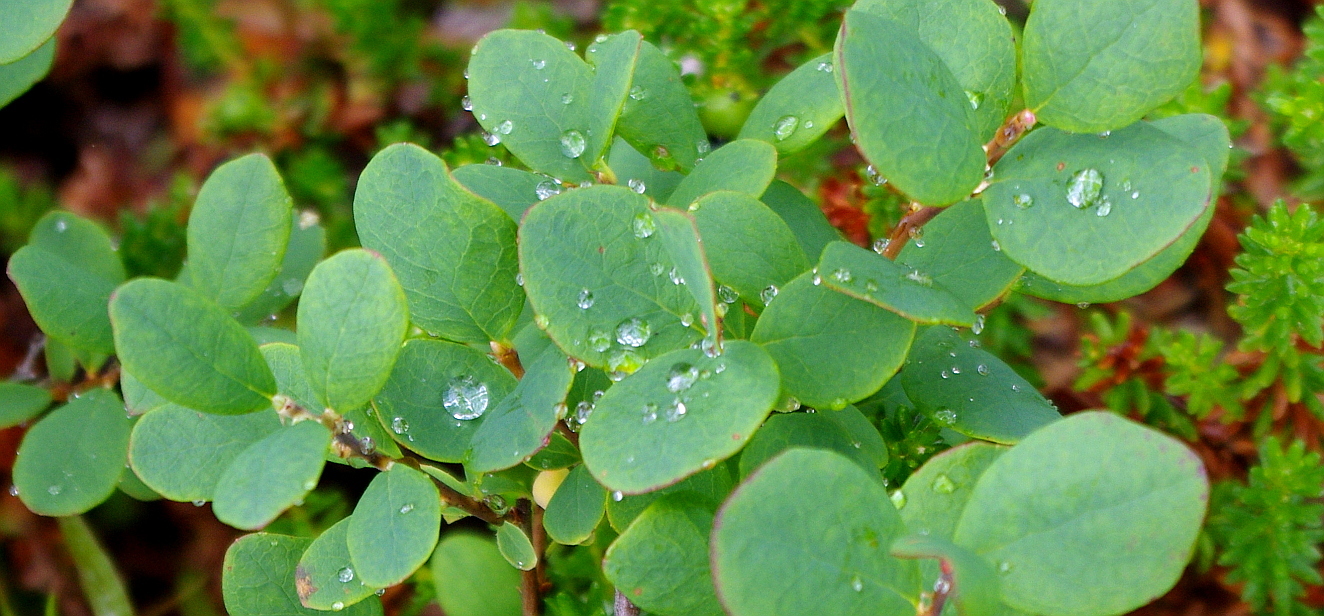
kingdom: Plantae
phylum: Tracheophyta
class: Magnoliopsida
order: Ericales
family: Ericaceae
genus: Vaccinium
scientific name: Vaccinium uliginosum
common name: Bog bilberry
